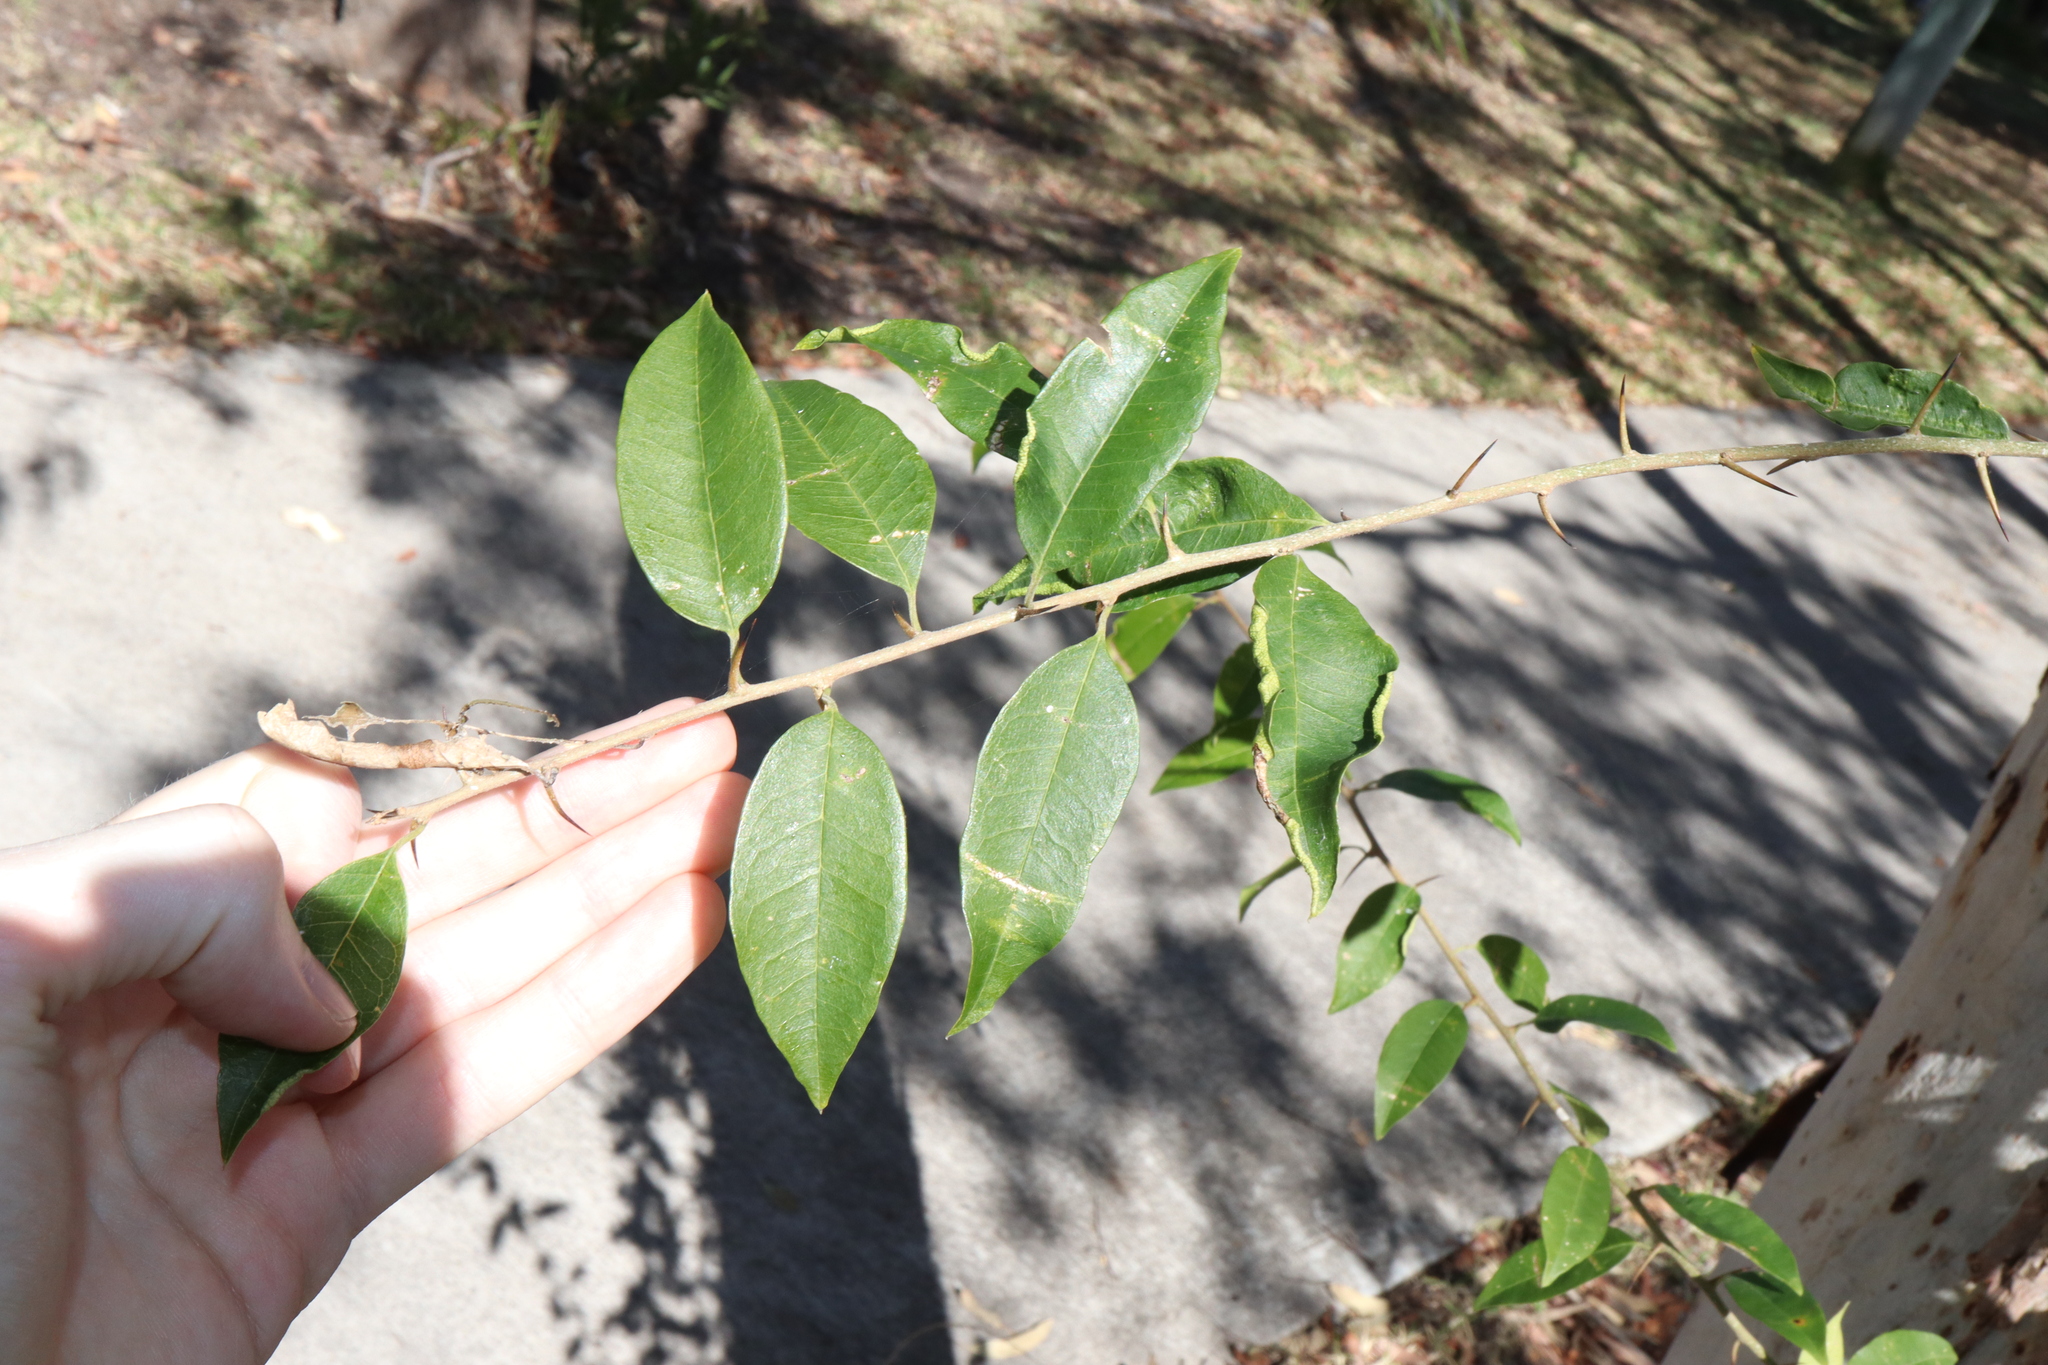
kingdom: Plantae
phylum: Tracheophyta
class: Magnoliopsida
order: Rosales
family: Moraceae
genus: Maclura
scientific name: Maclura cochinchinensis
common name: Cockspurthorn
